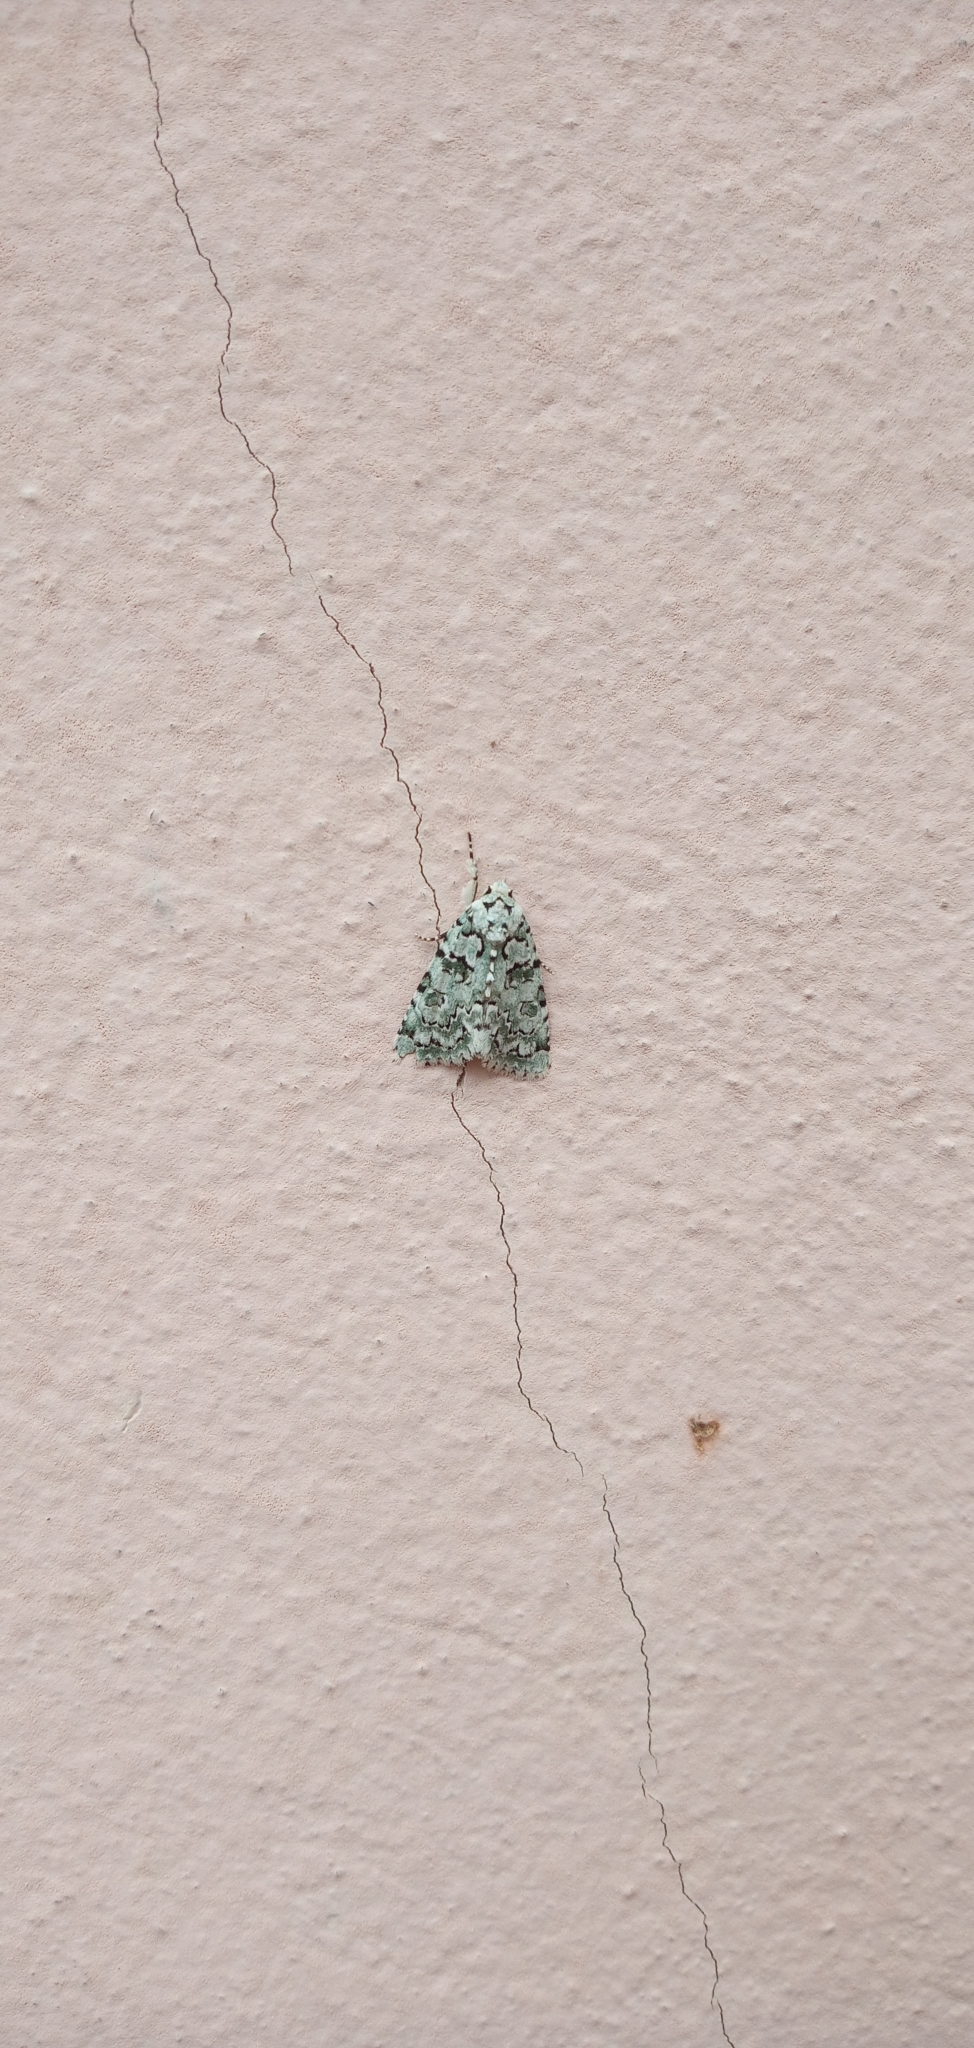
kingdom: Animalia
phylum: Arthropoda
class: Insecta
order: Lepidoptera
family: Noctuidae
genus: Nyctobrya
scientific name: Nyctobrya muralis
